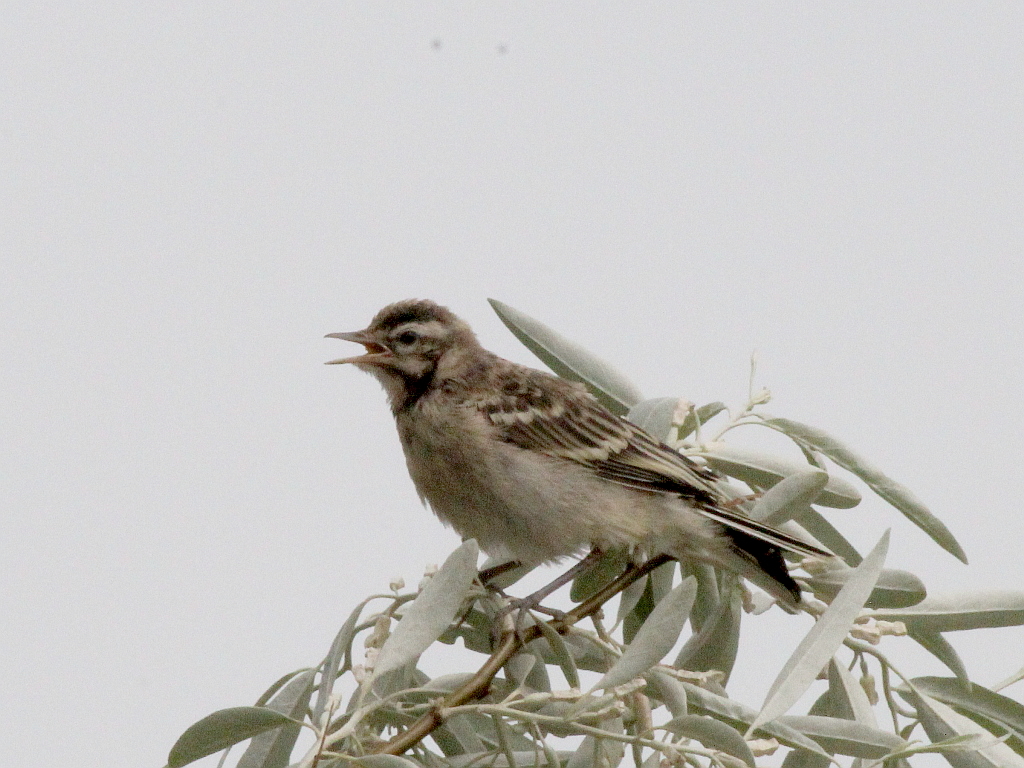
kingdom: Animalia
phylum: Chordata
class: Aves
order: Passeriformes
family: Motacillidae
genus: Motacilla
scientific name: Motacilla flava
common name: Western yellow wagtail
